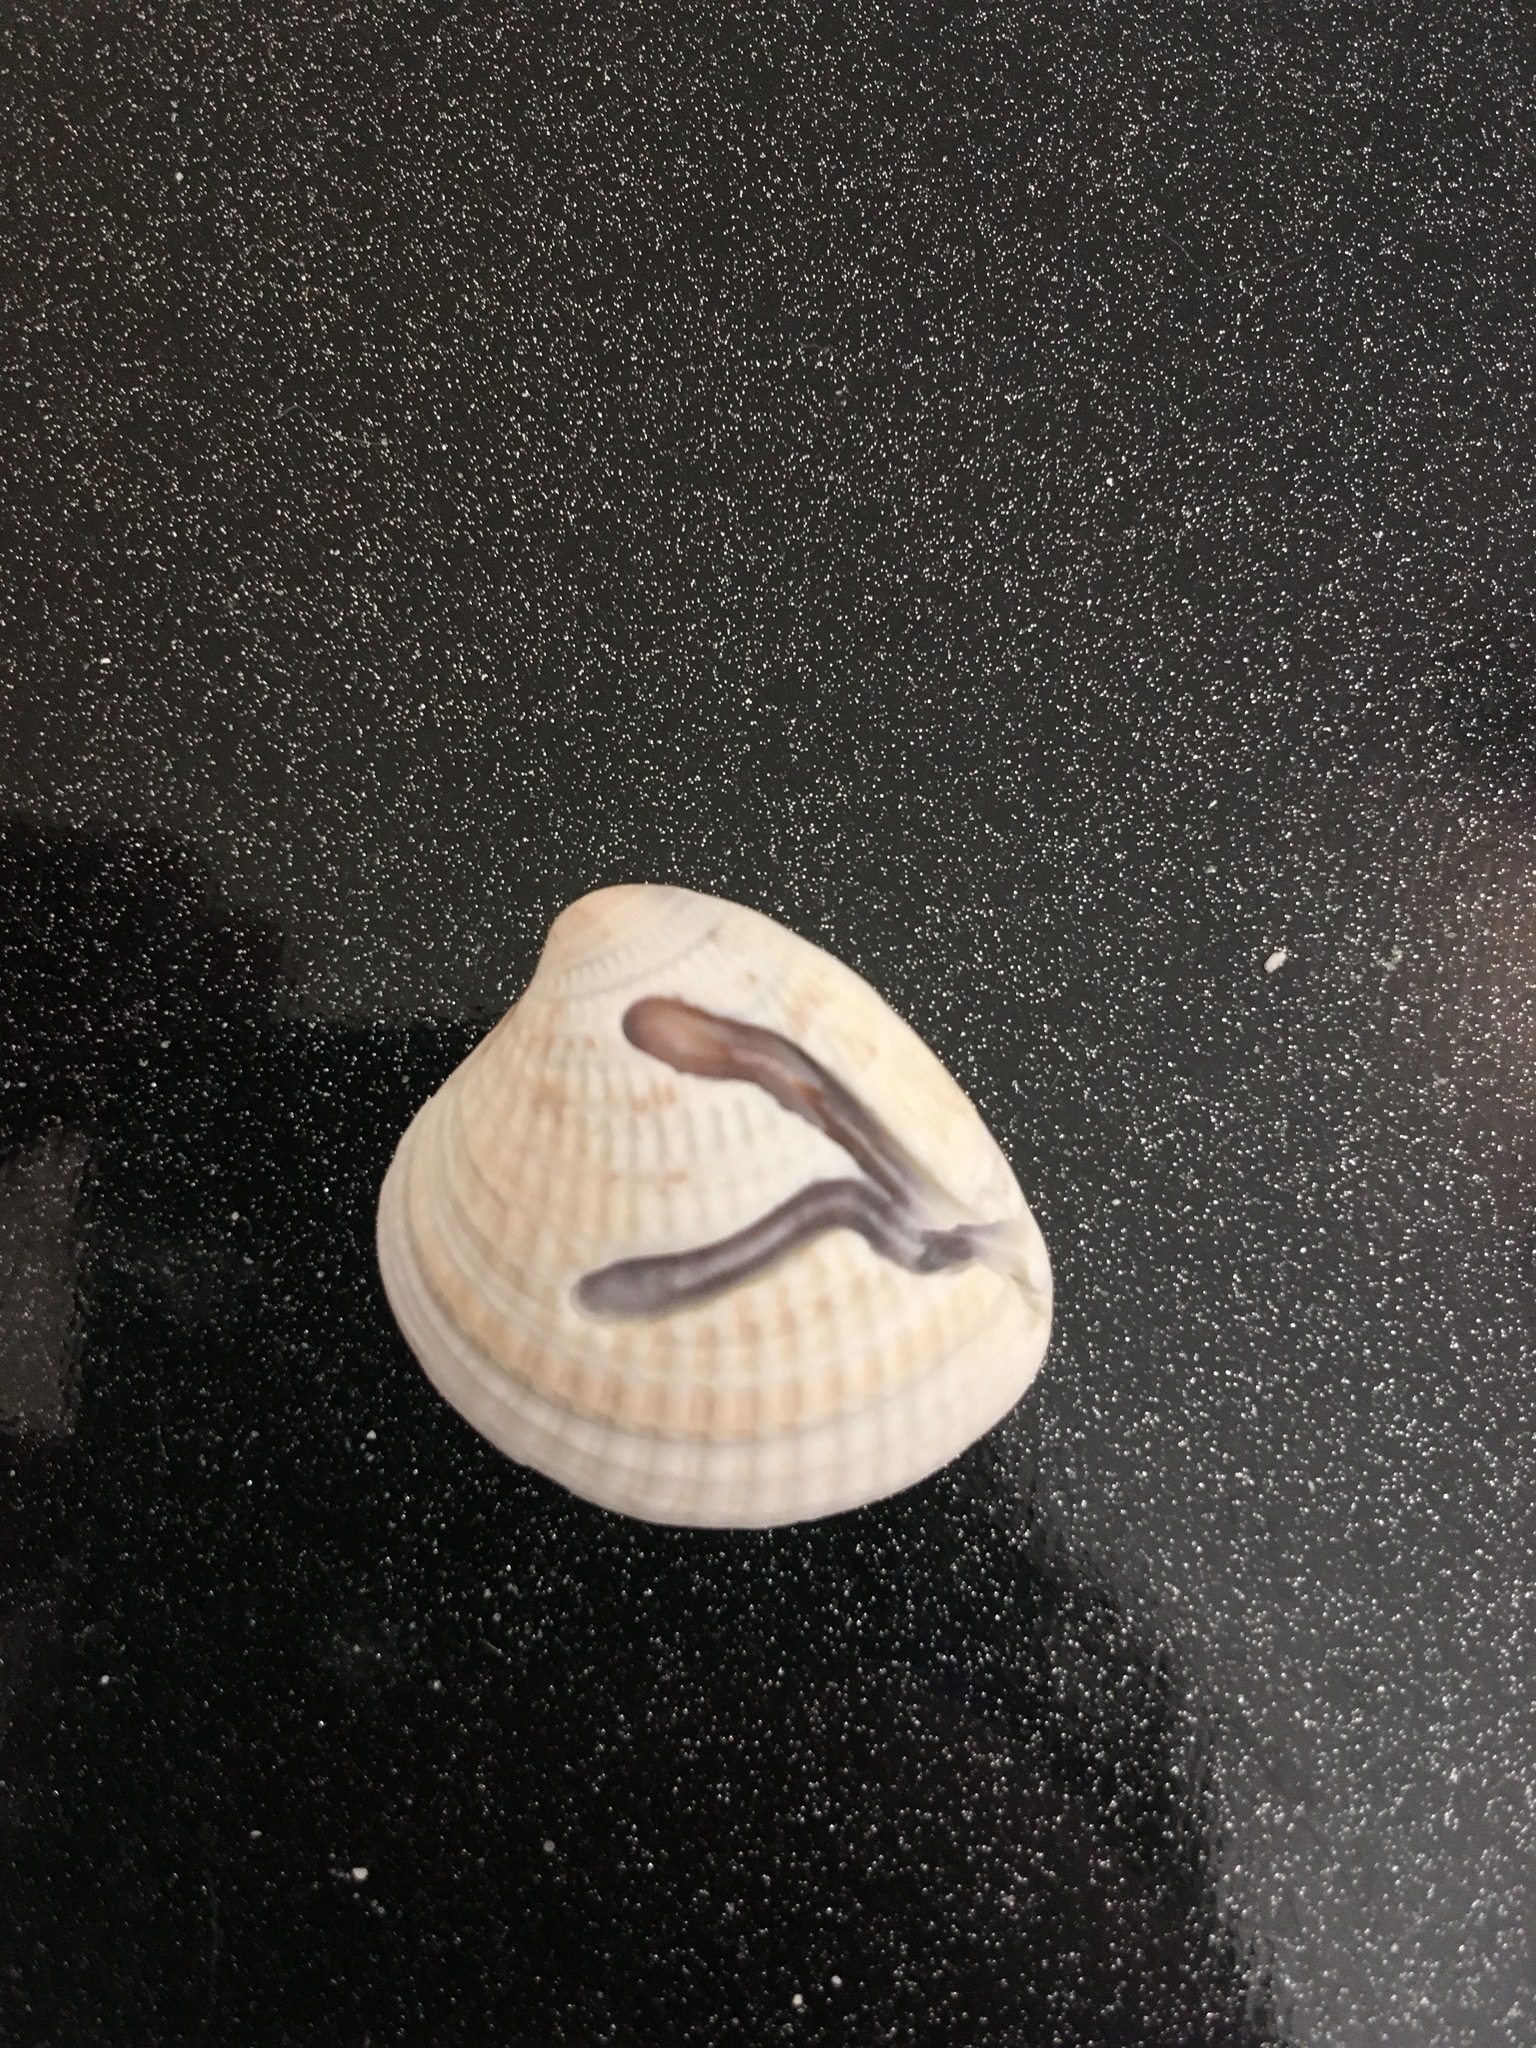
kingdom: Animalia
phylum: Mollusca
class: Bivalvia
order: Venerida
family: Veneridae
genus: Chione
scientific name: Chione elevata
